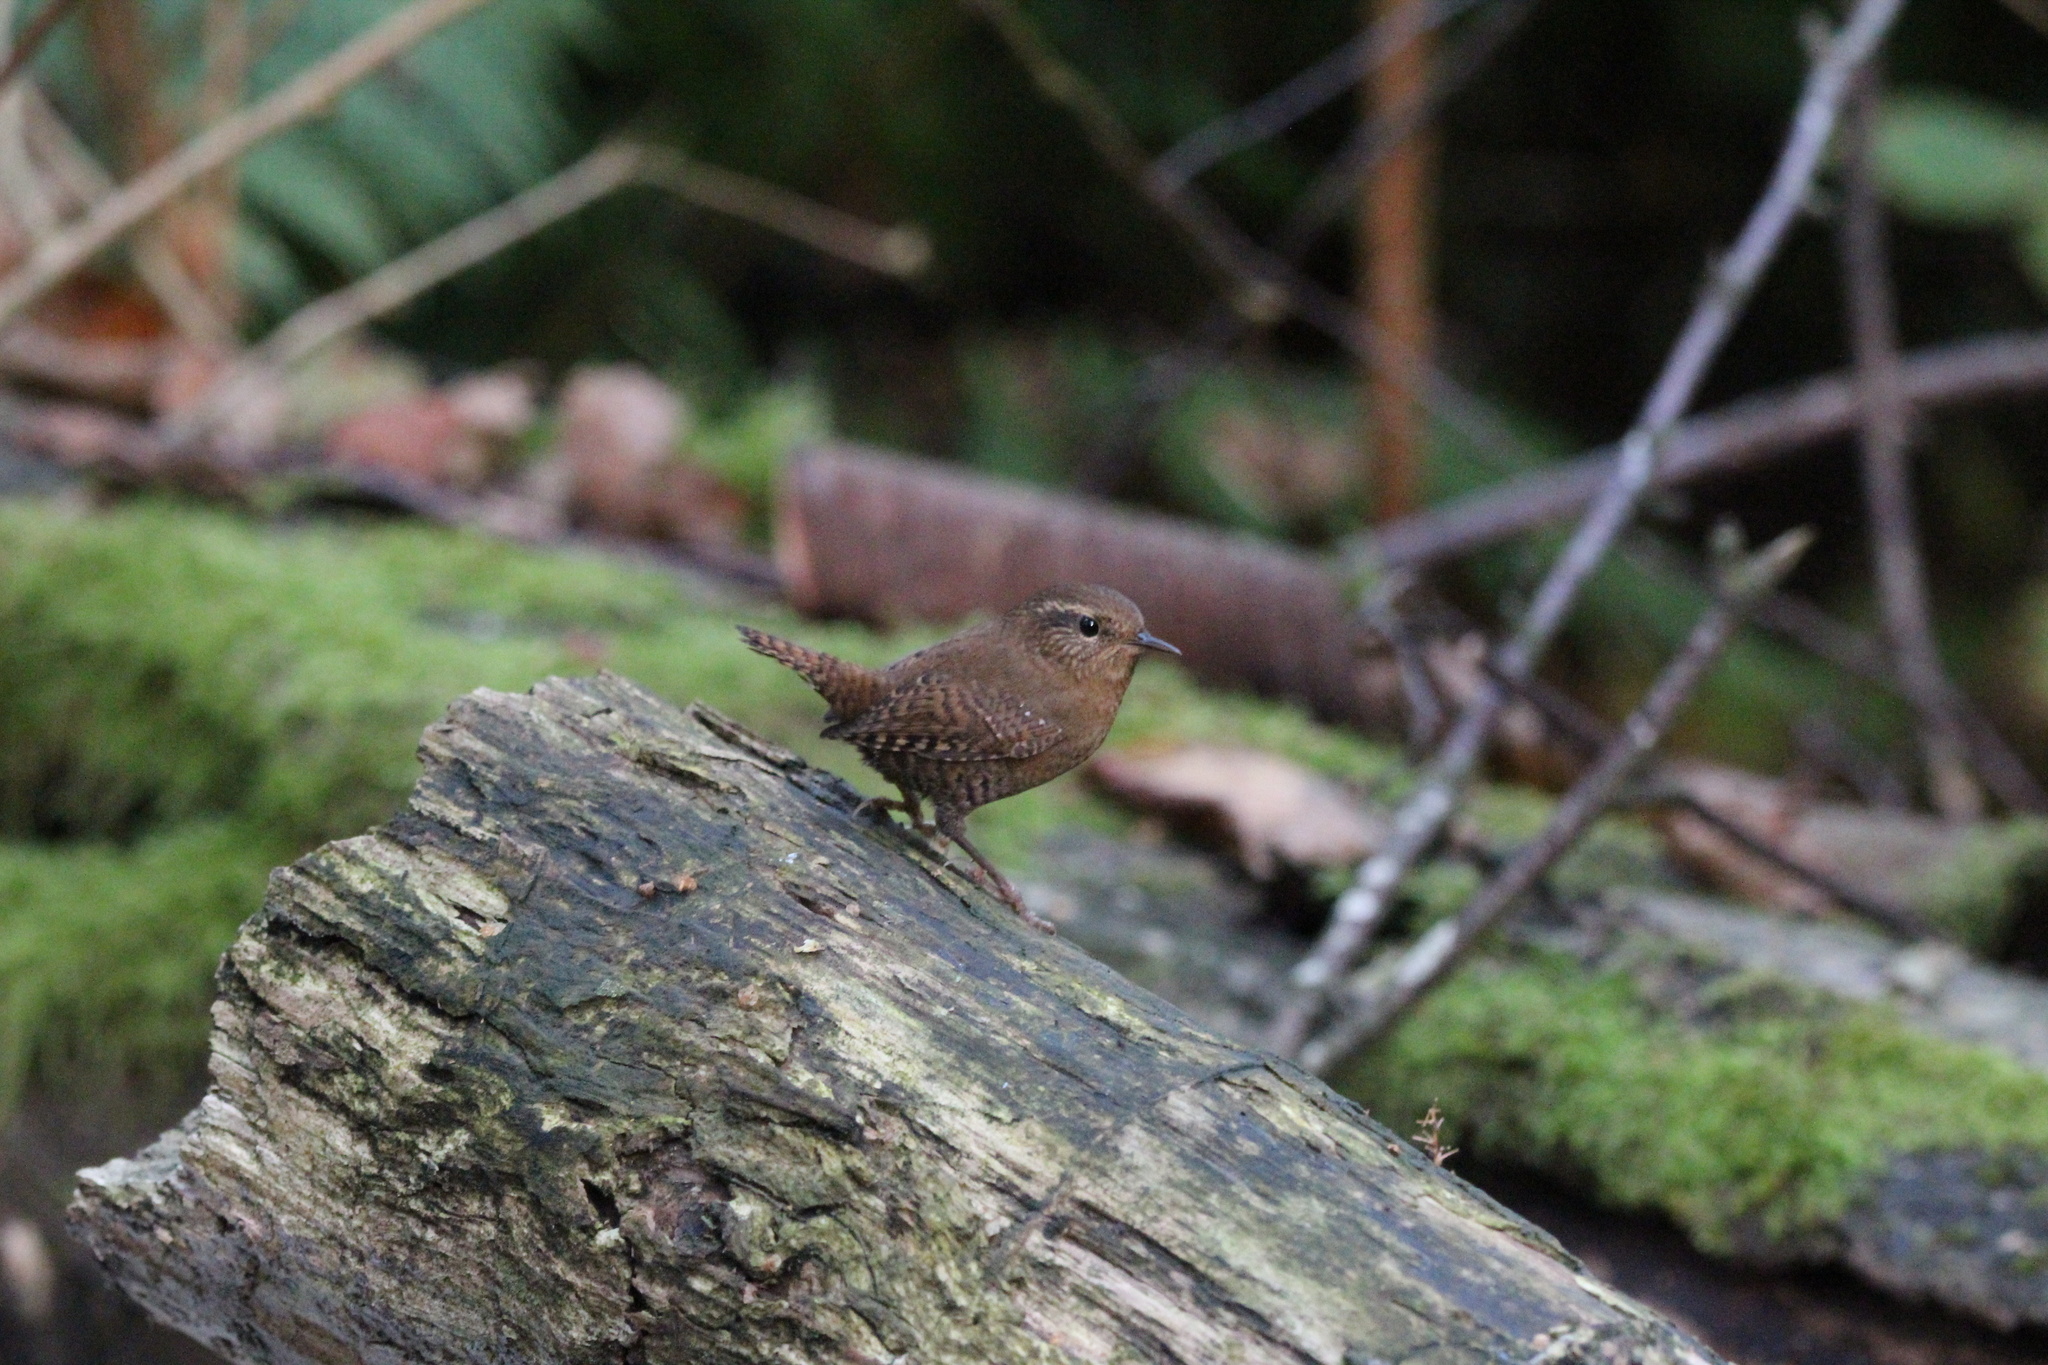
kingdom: Animalia
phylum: Chordata
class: Aves
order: Passeriformes
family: Troglodytidae
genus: Troglodytes
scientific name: Troglodytes pacificus
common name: Pacific wren
